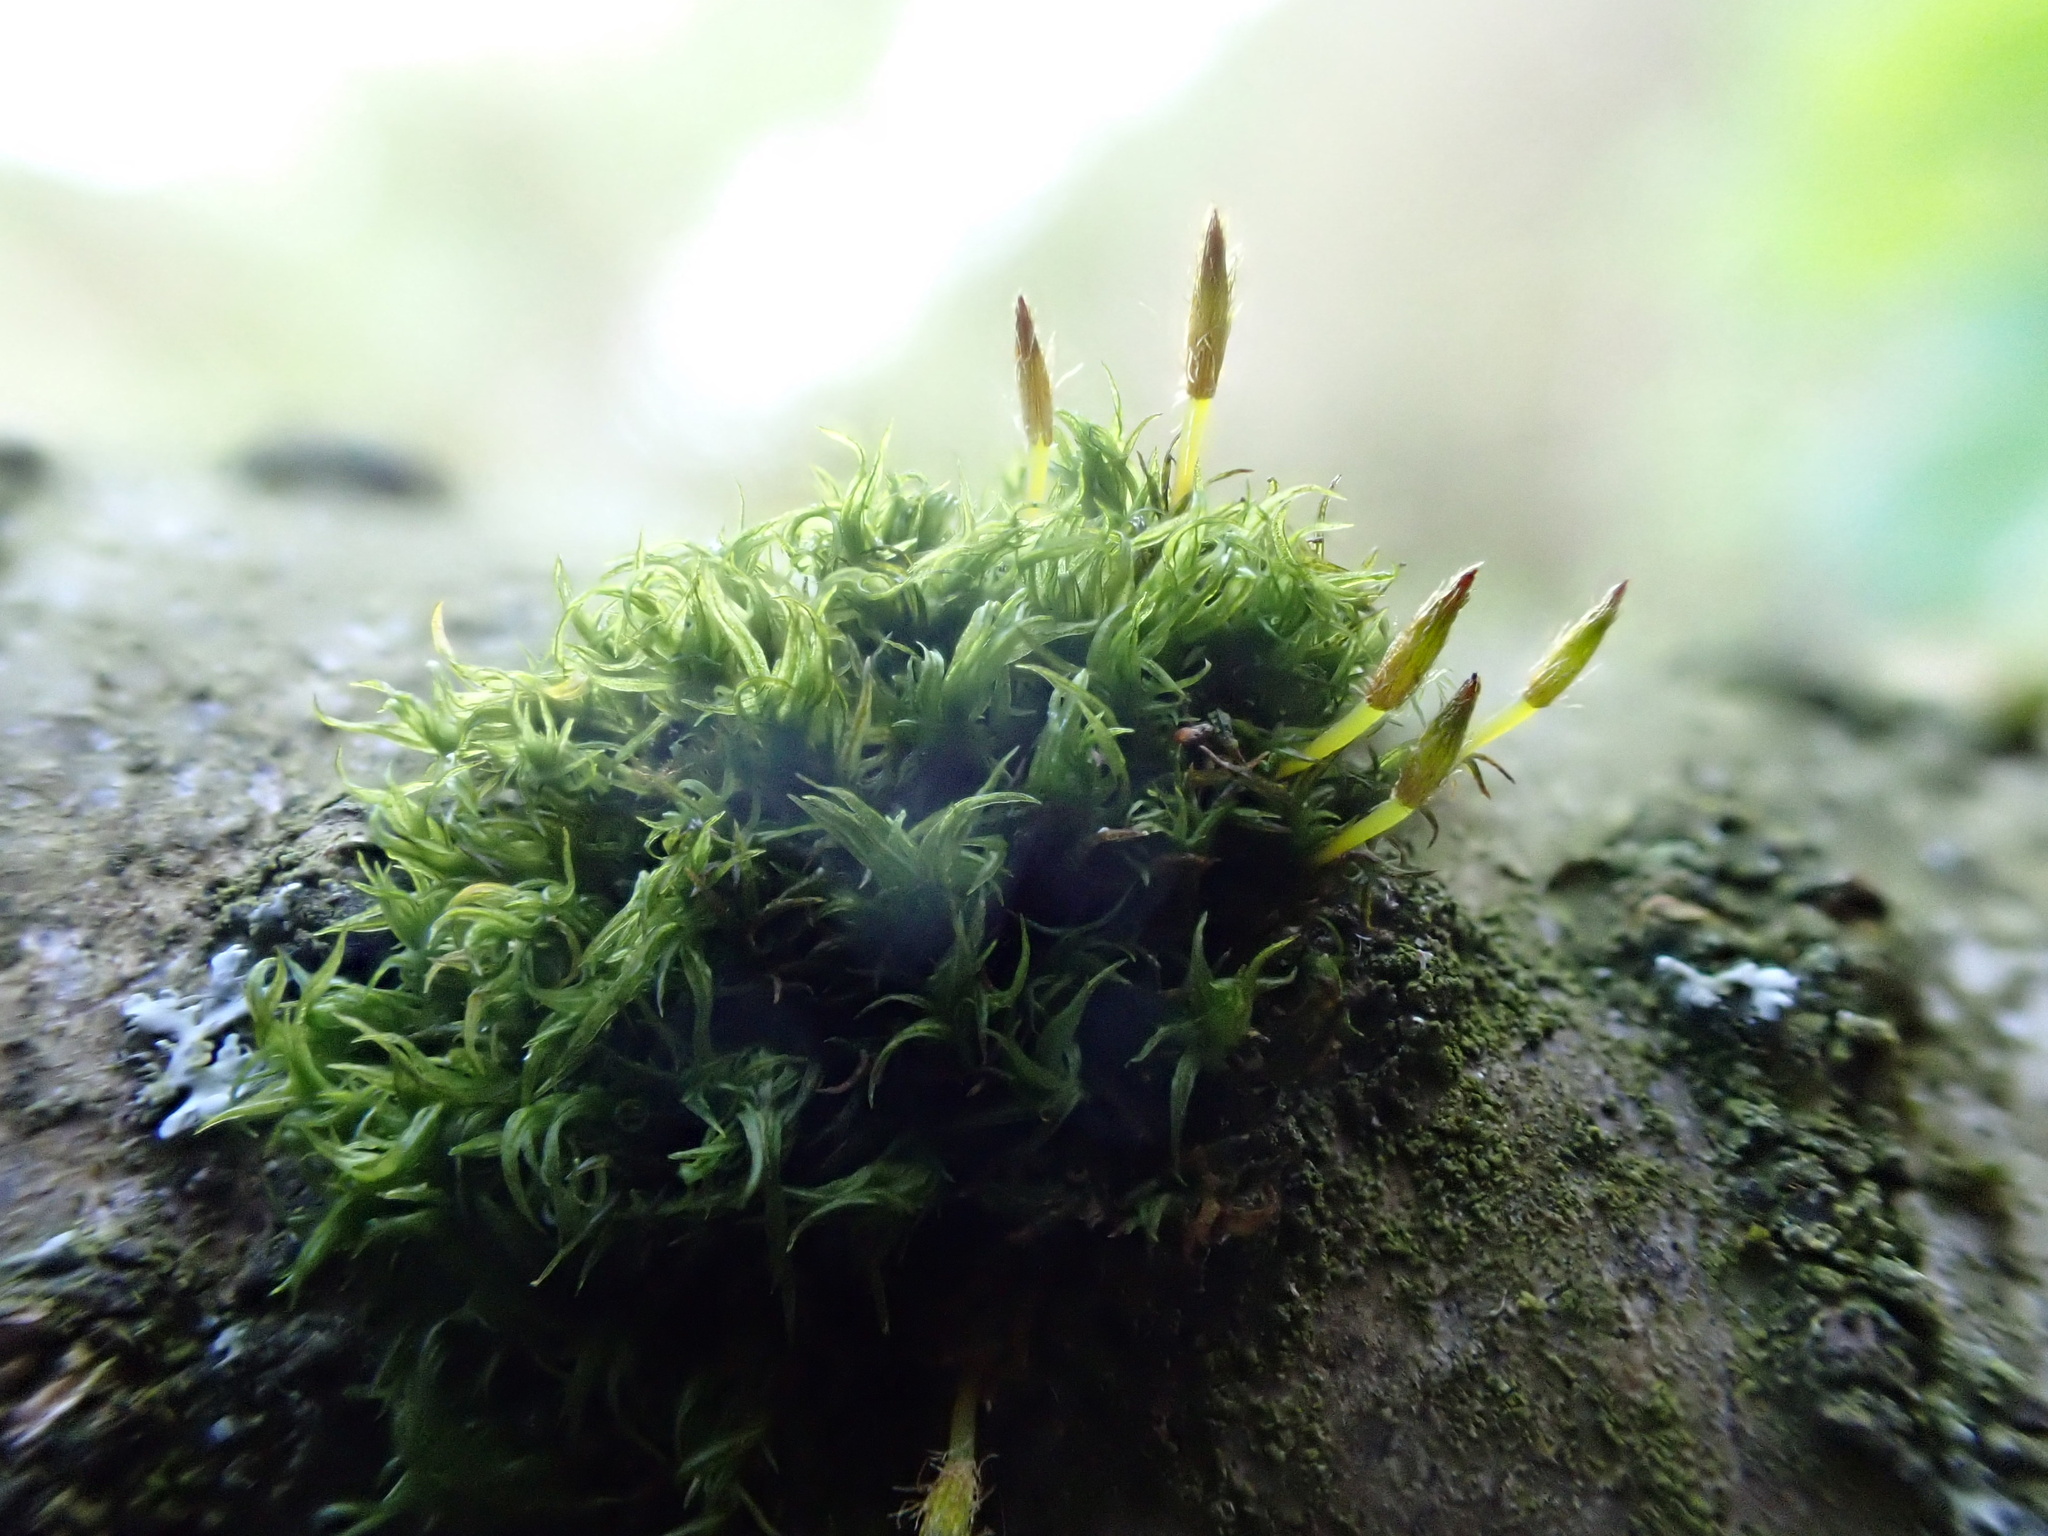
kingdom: Plantae
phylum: Bryophyta
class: Bryopsida
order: Orthotrichales
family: Orthotrichaceae
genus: Ulota
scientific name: Ulota bruchii
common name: Bruch's pincushion
